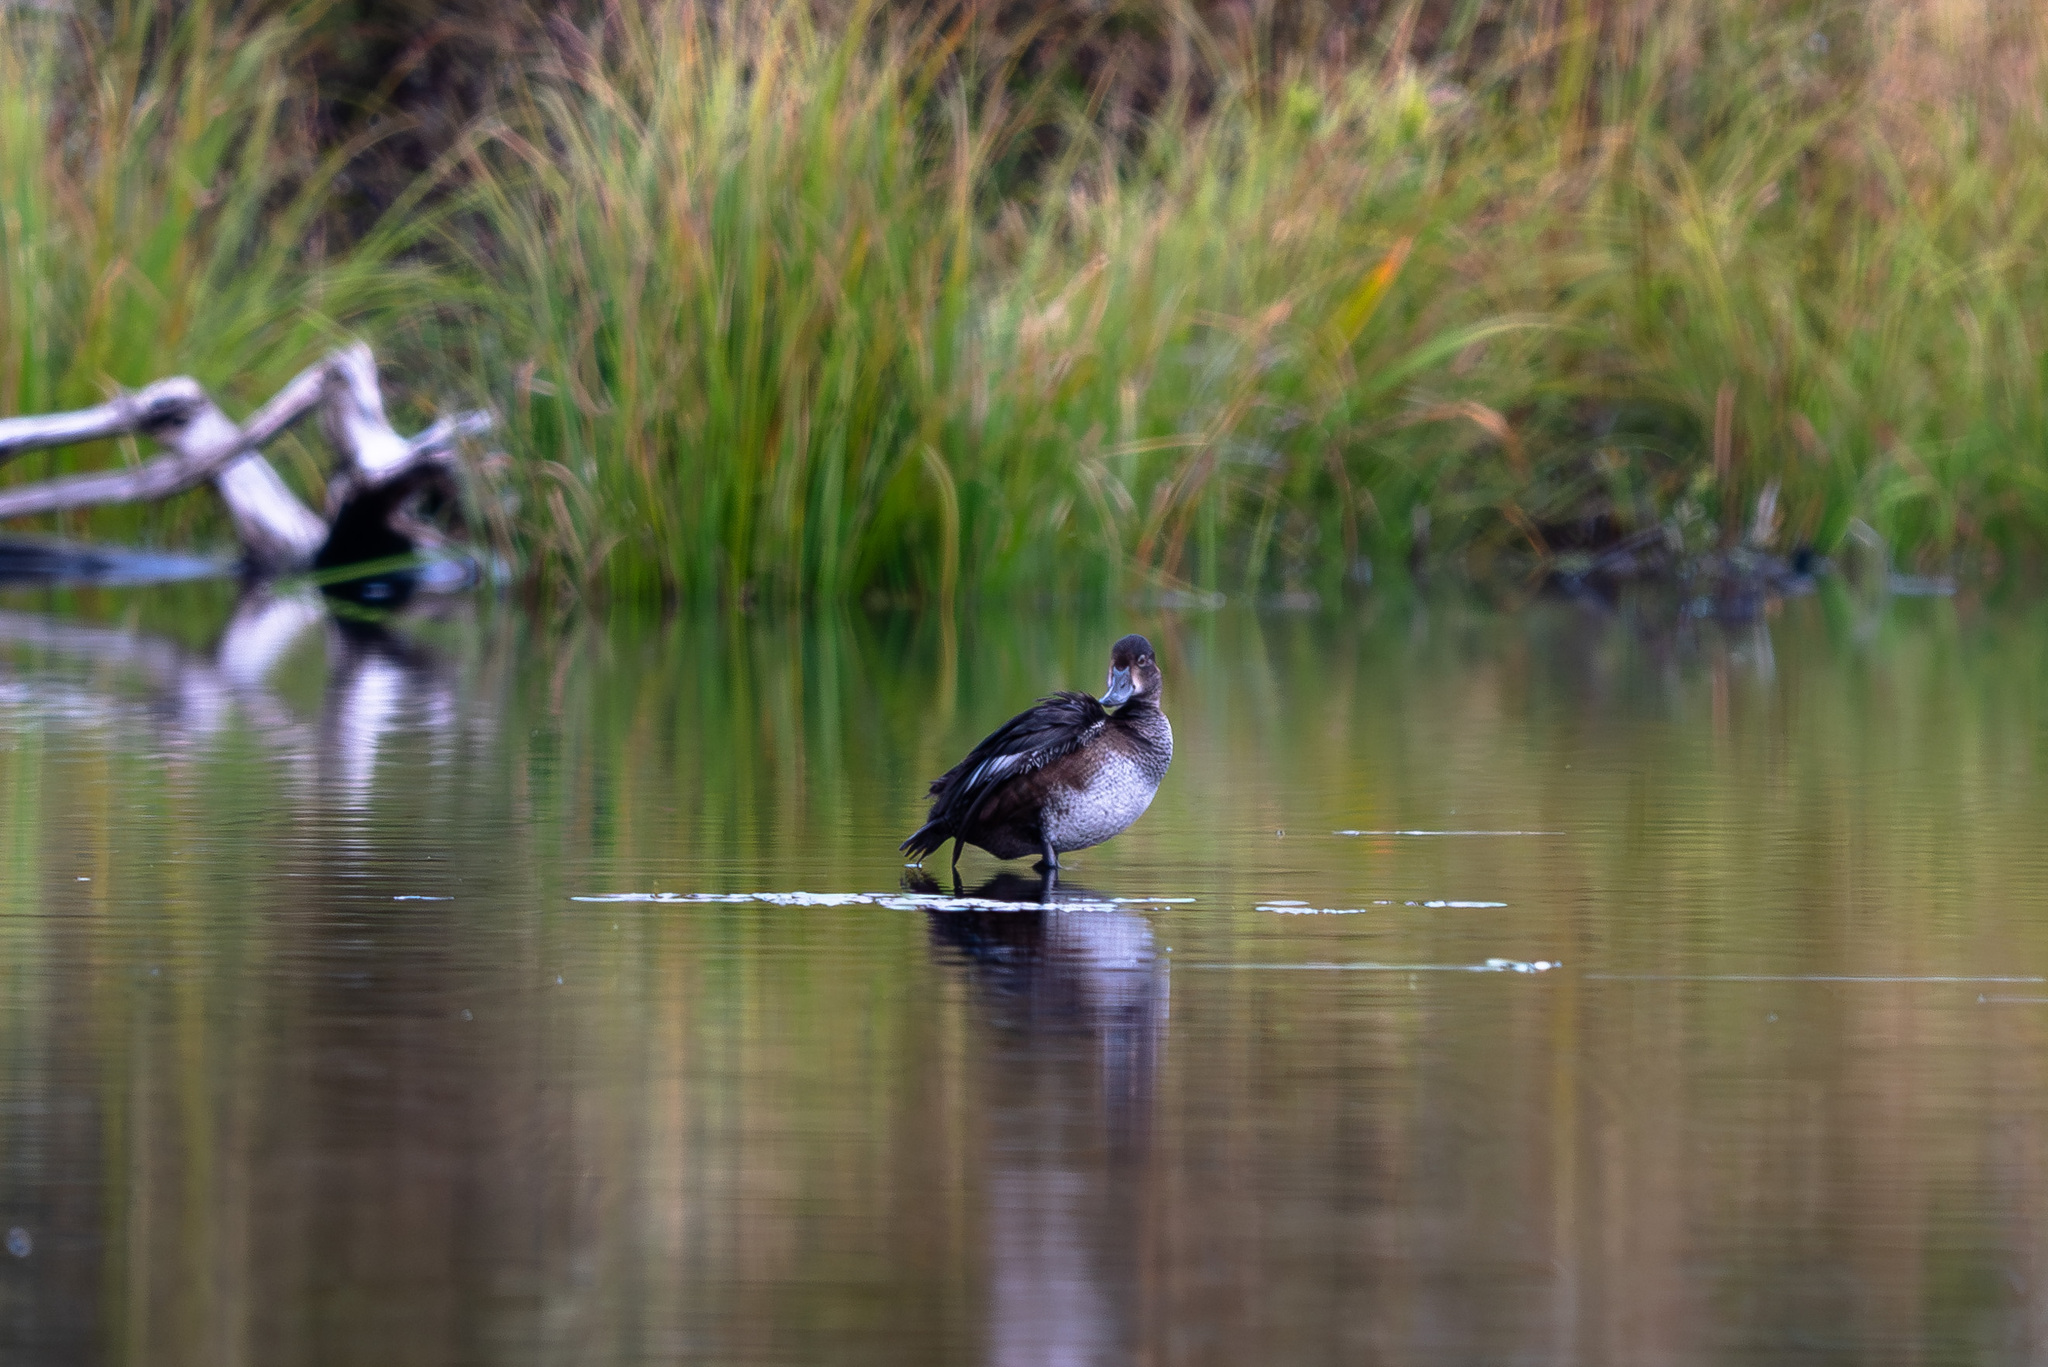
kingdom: Animalia
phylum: Chordata
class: Aves
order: Anseriformes
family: Anatidae
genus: Aythya
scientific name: Aythya collaris
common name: Ring-necked duck
